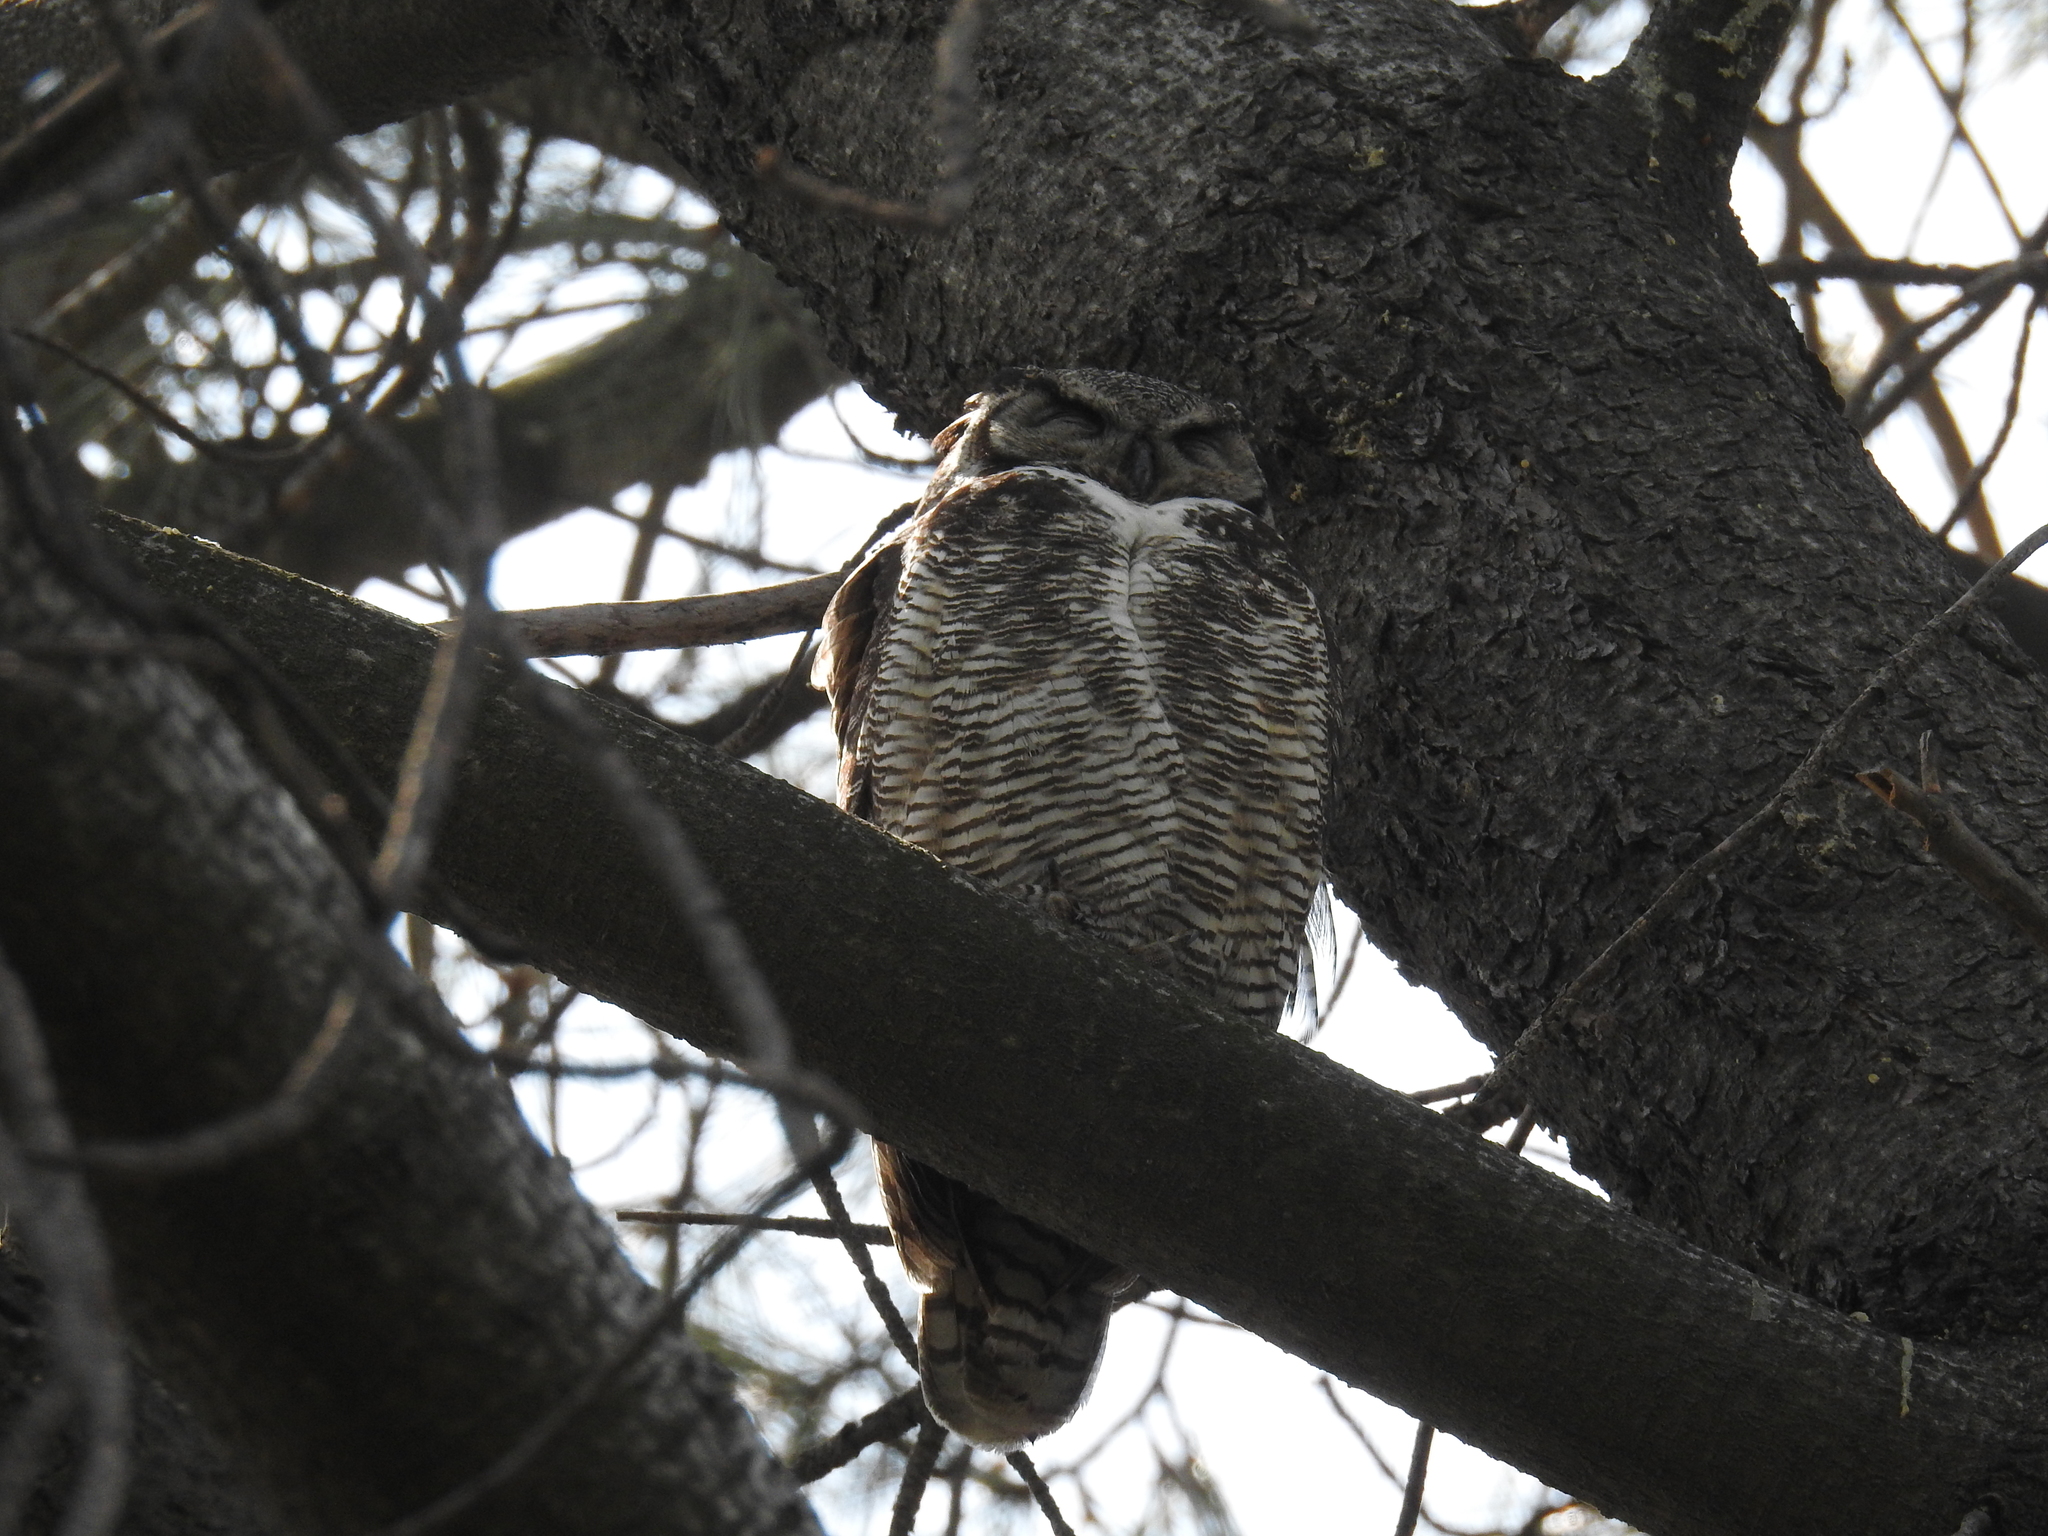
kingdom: Animalia
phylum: Chordata
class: Aves
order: Strigiformes
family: Strigidae
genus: Bubo
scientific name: Bubo virginianus
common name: Great horned owl
